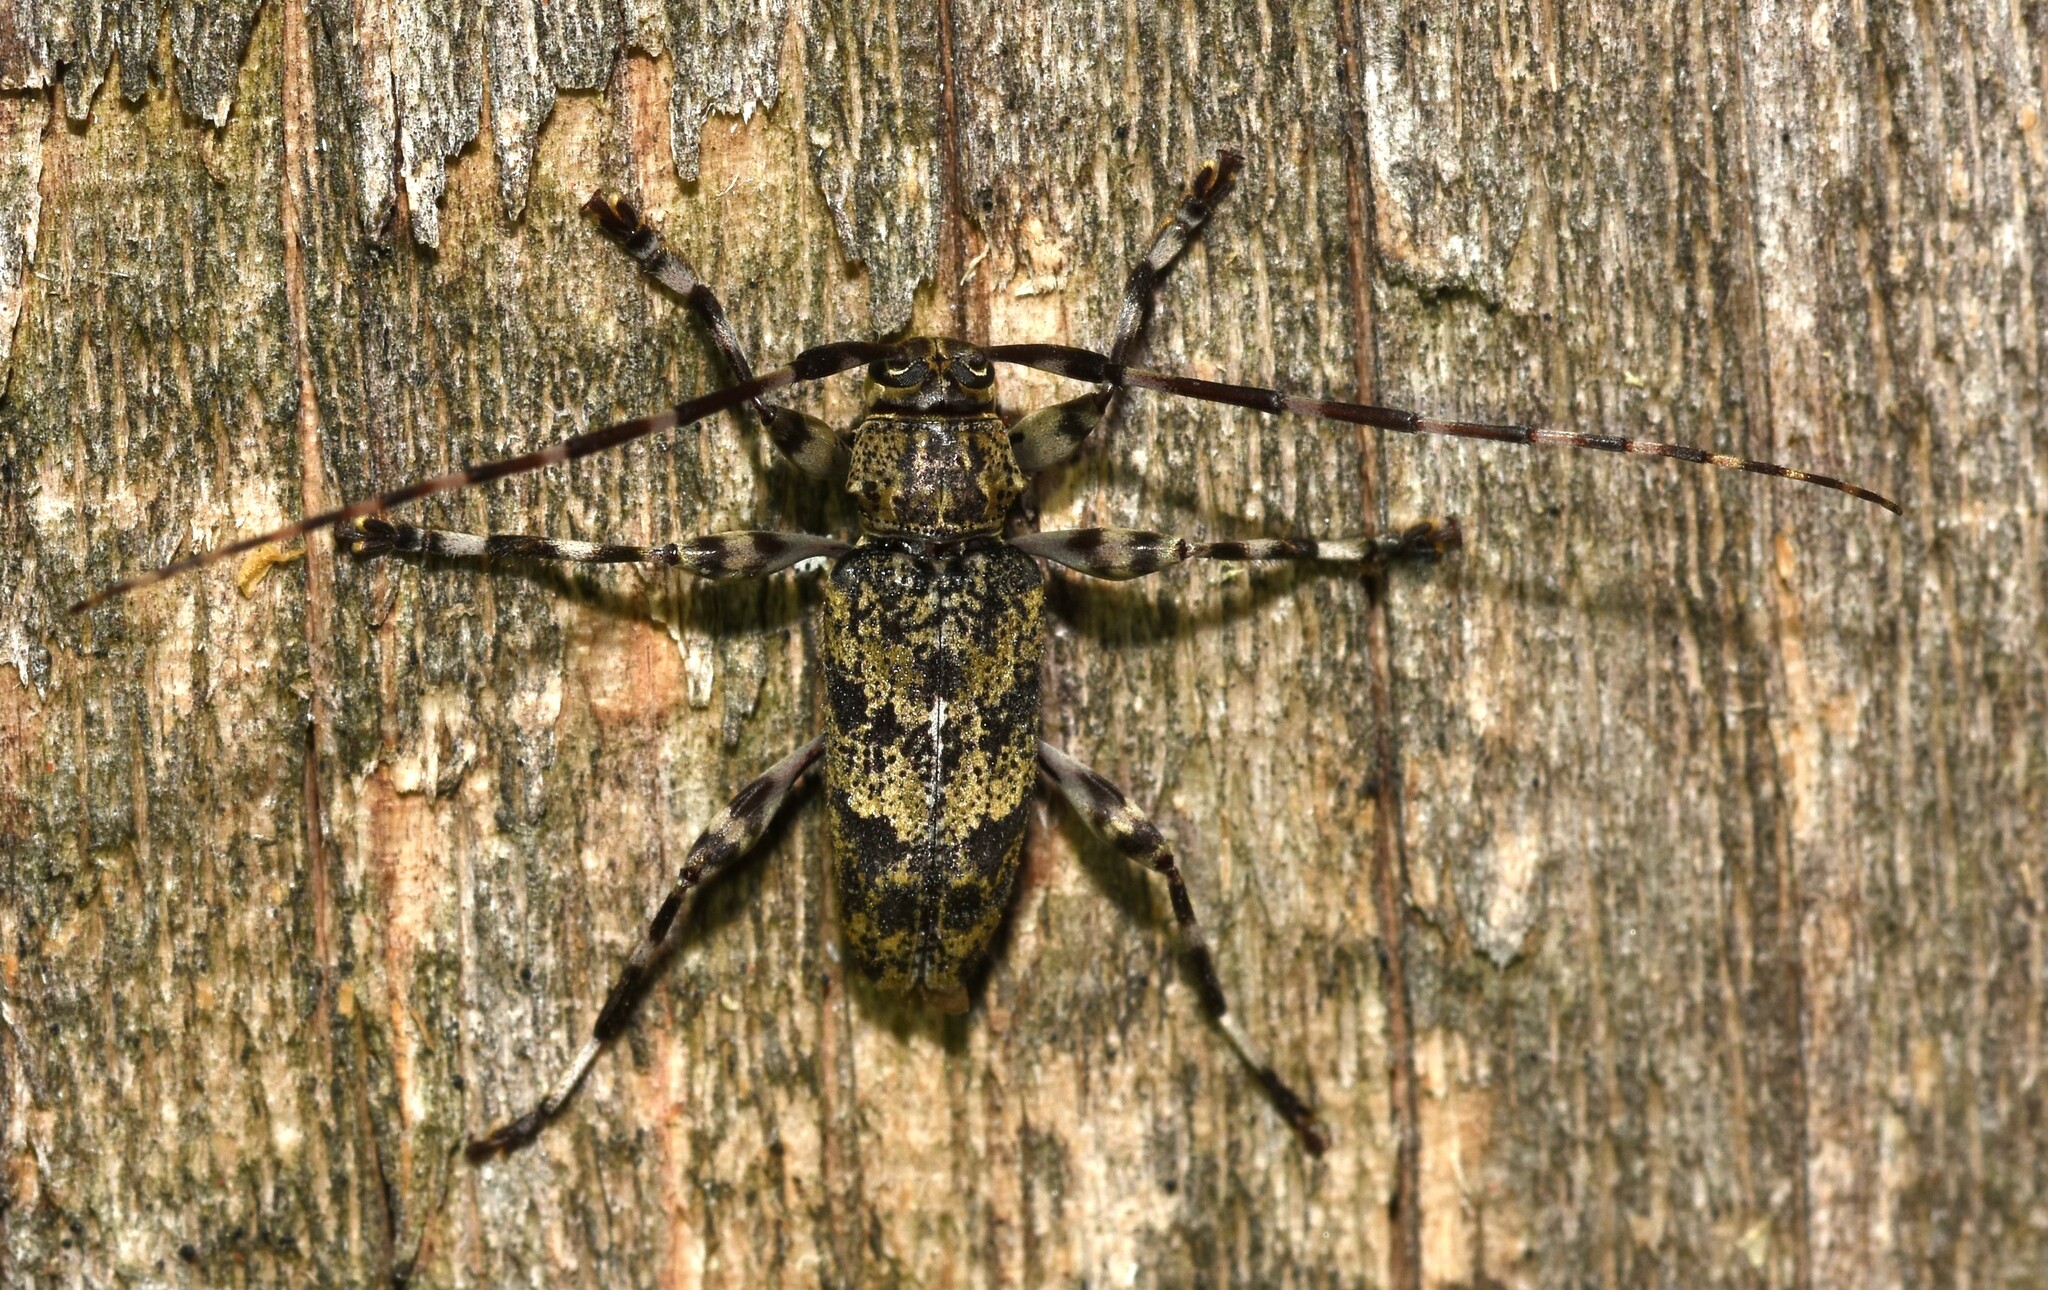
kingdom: Animalia
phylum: Arthropoda
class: Insecta
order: Coleoptera
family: Cerambycidae
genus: Graphisurus
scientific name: Graphisurus fasciatus
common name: Banded graphisurus
